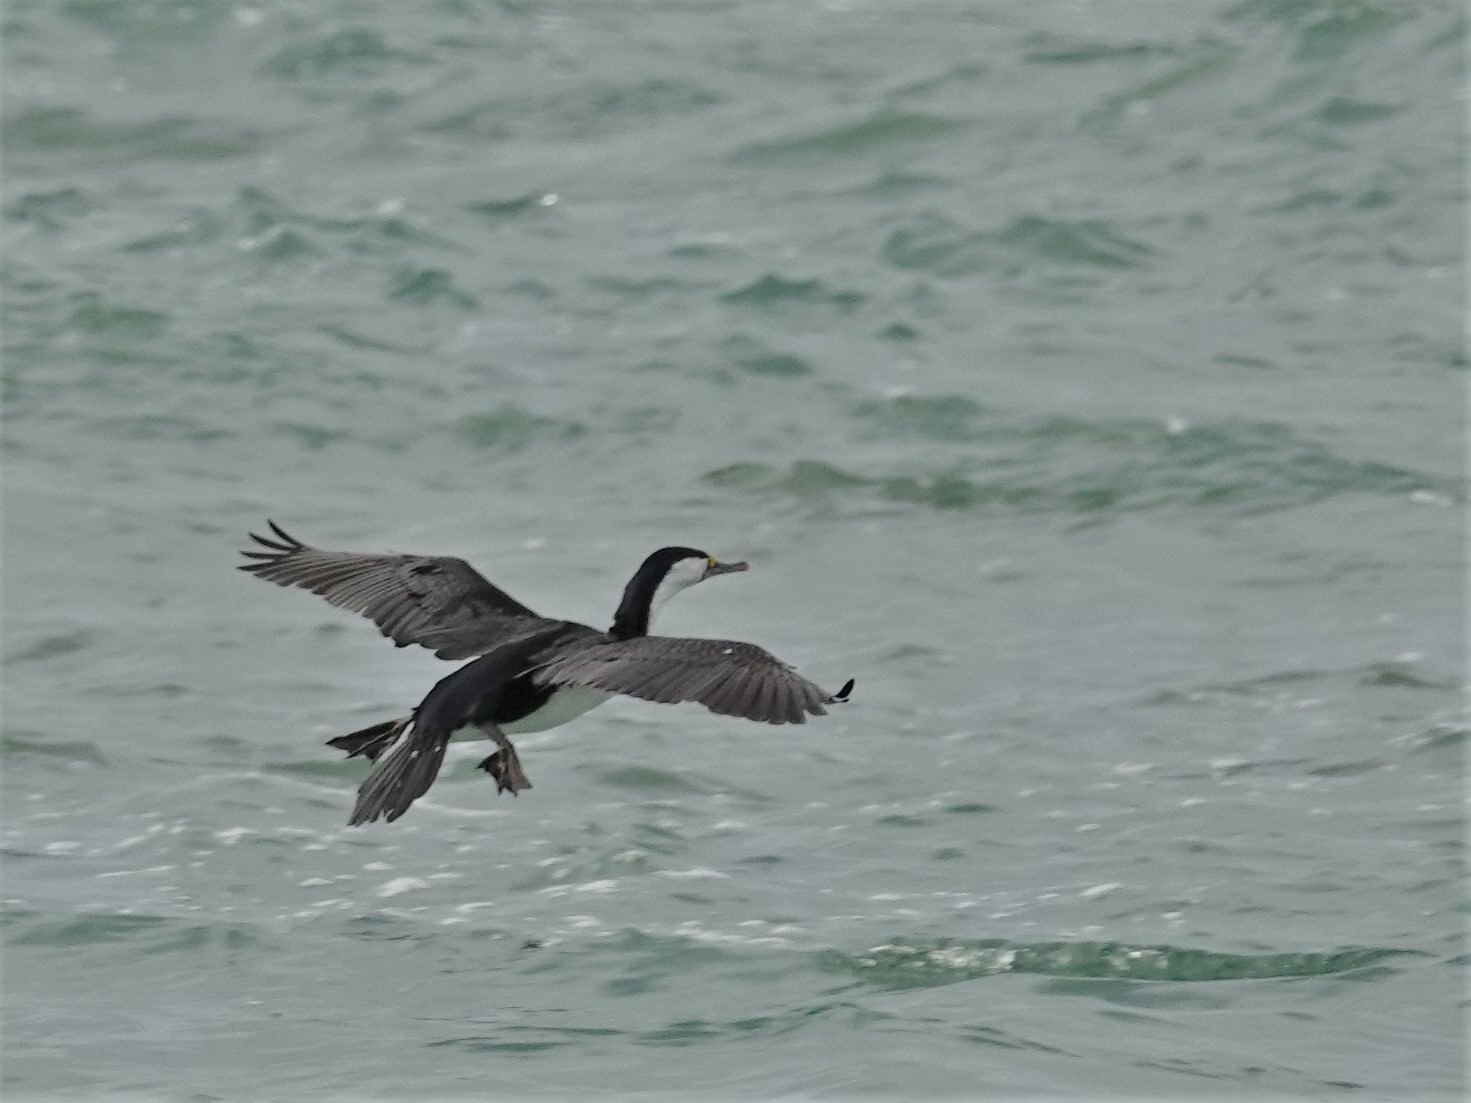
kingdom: Animalia
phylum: Chordata
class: Aves
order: Suliformes
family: Phalacrocoracidae
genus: Phalacrocorax
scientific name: Phalacrocorax varius
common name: Pied cormorant
